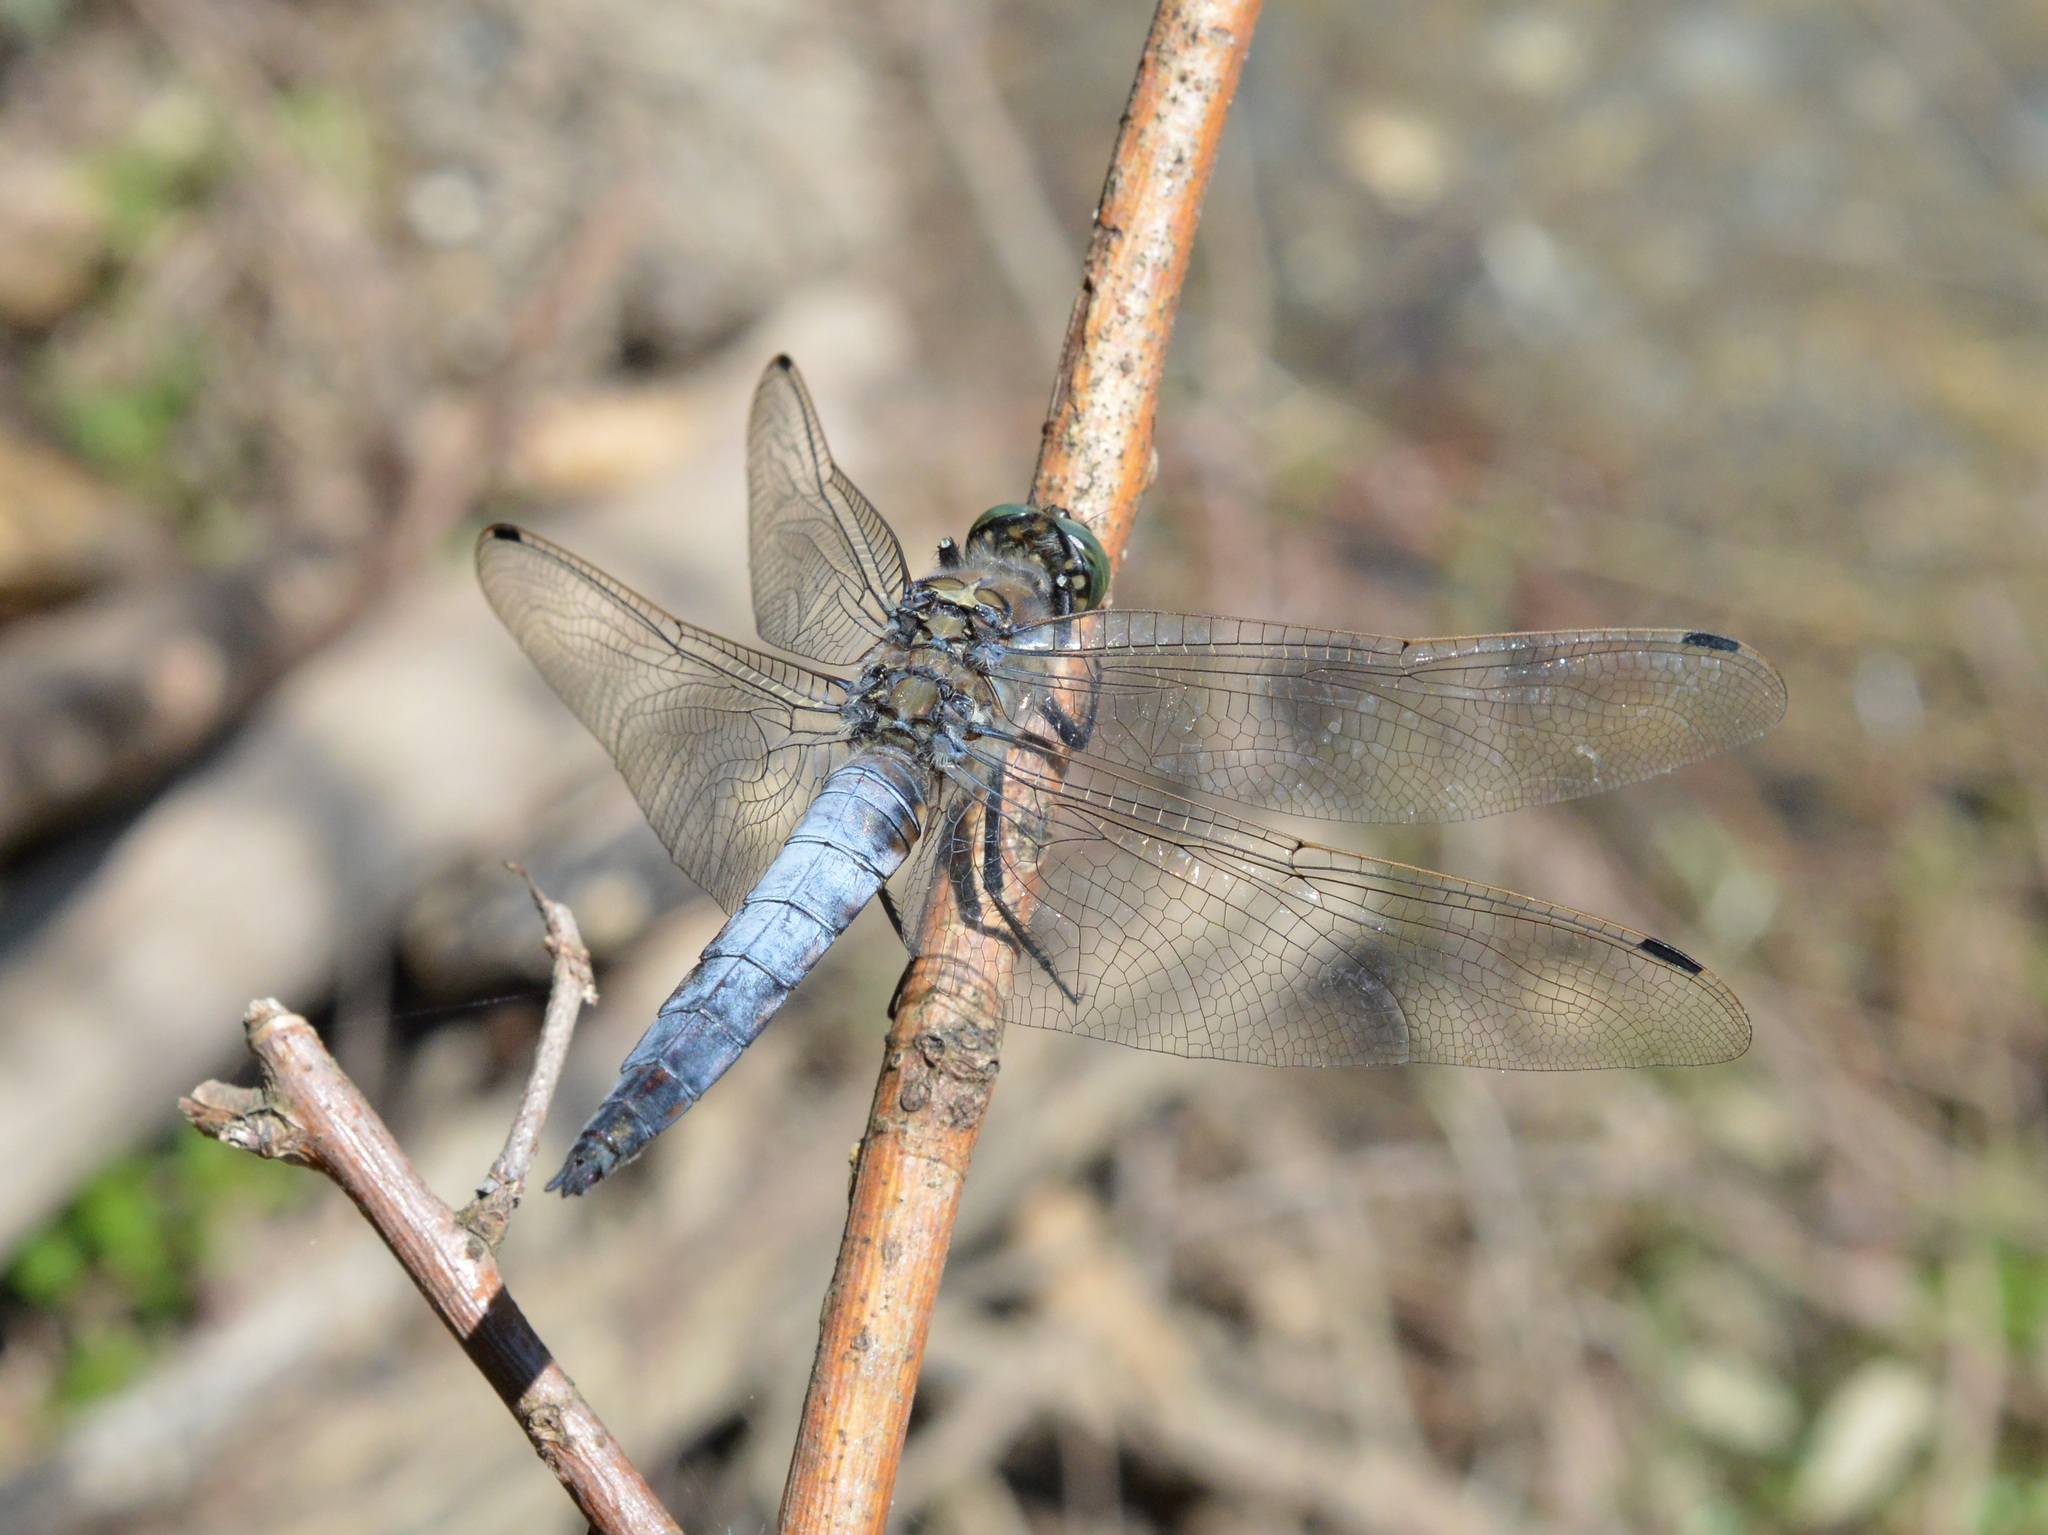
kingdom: Animalia
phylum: Arthropoda
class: Insecta
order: Odonata
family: Libellulidae
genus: Orthetrum
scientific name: Orthetrum cancellatum
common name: Black-tailed skimmer
